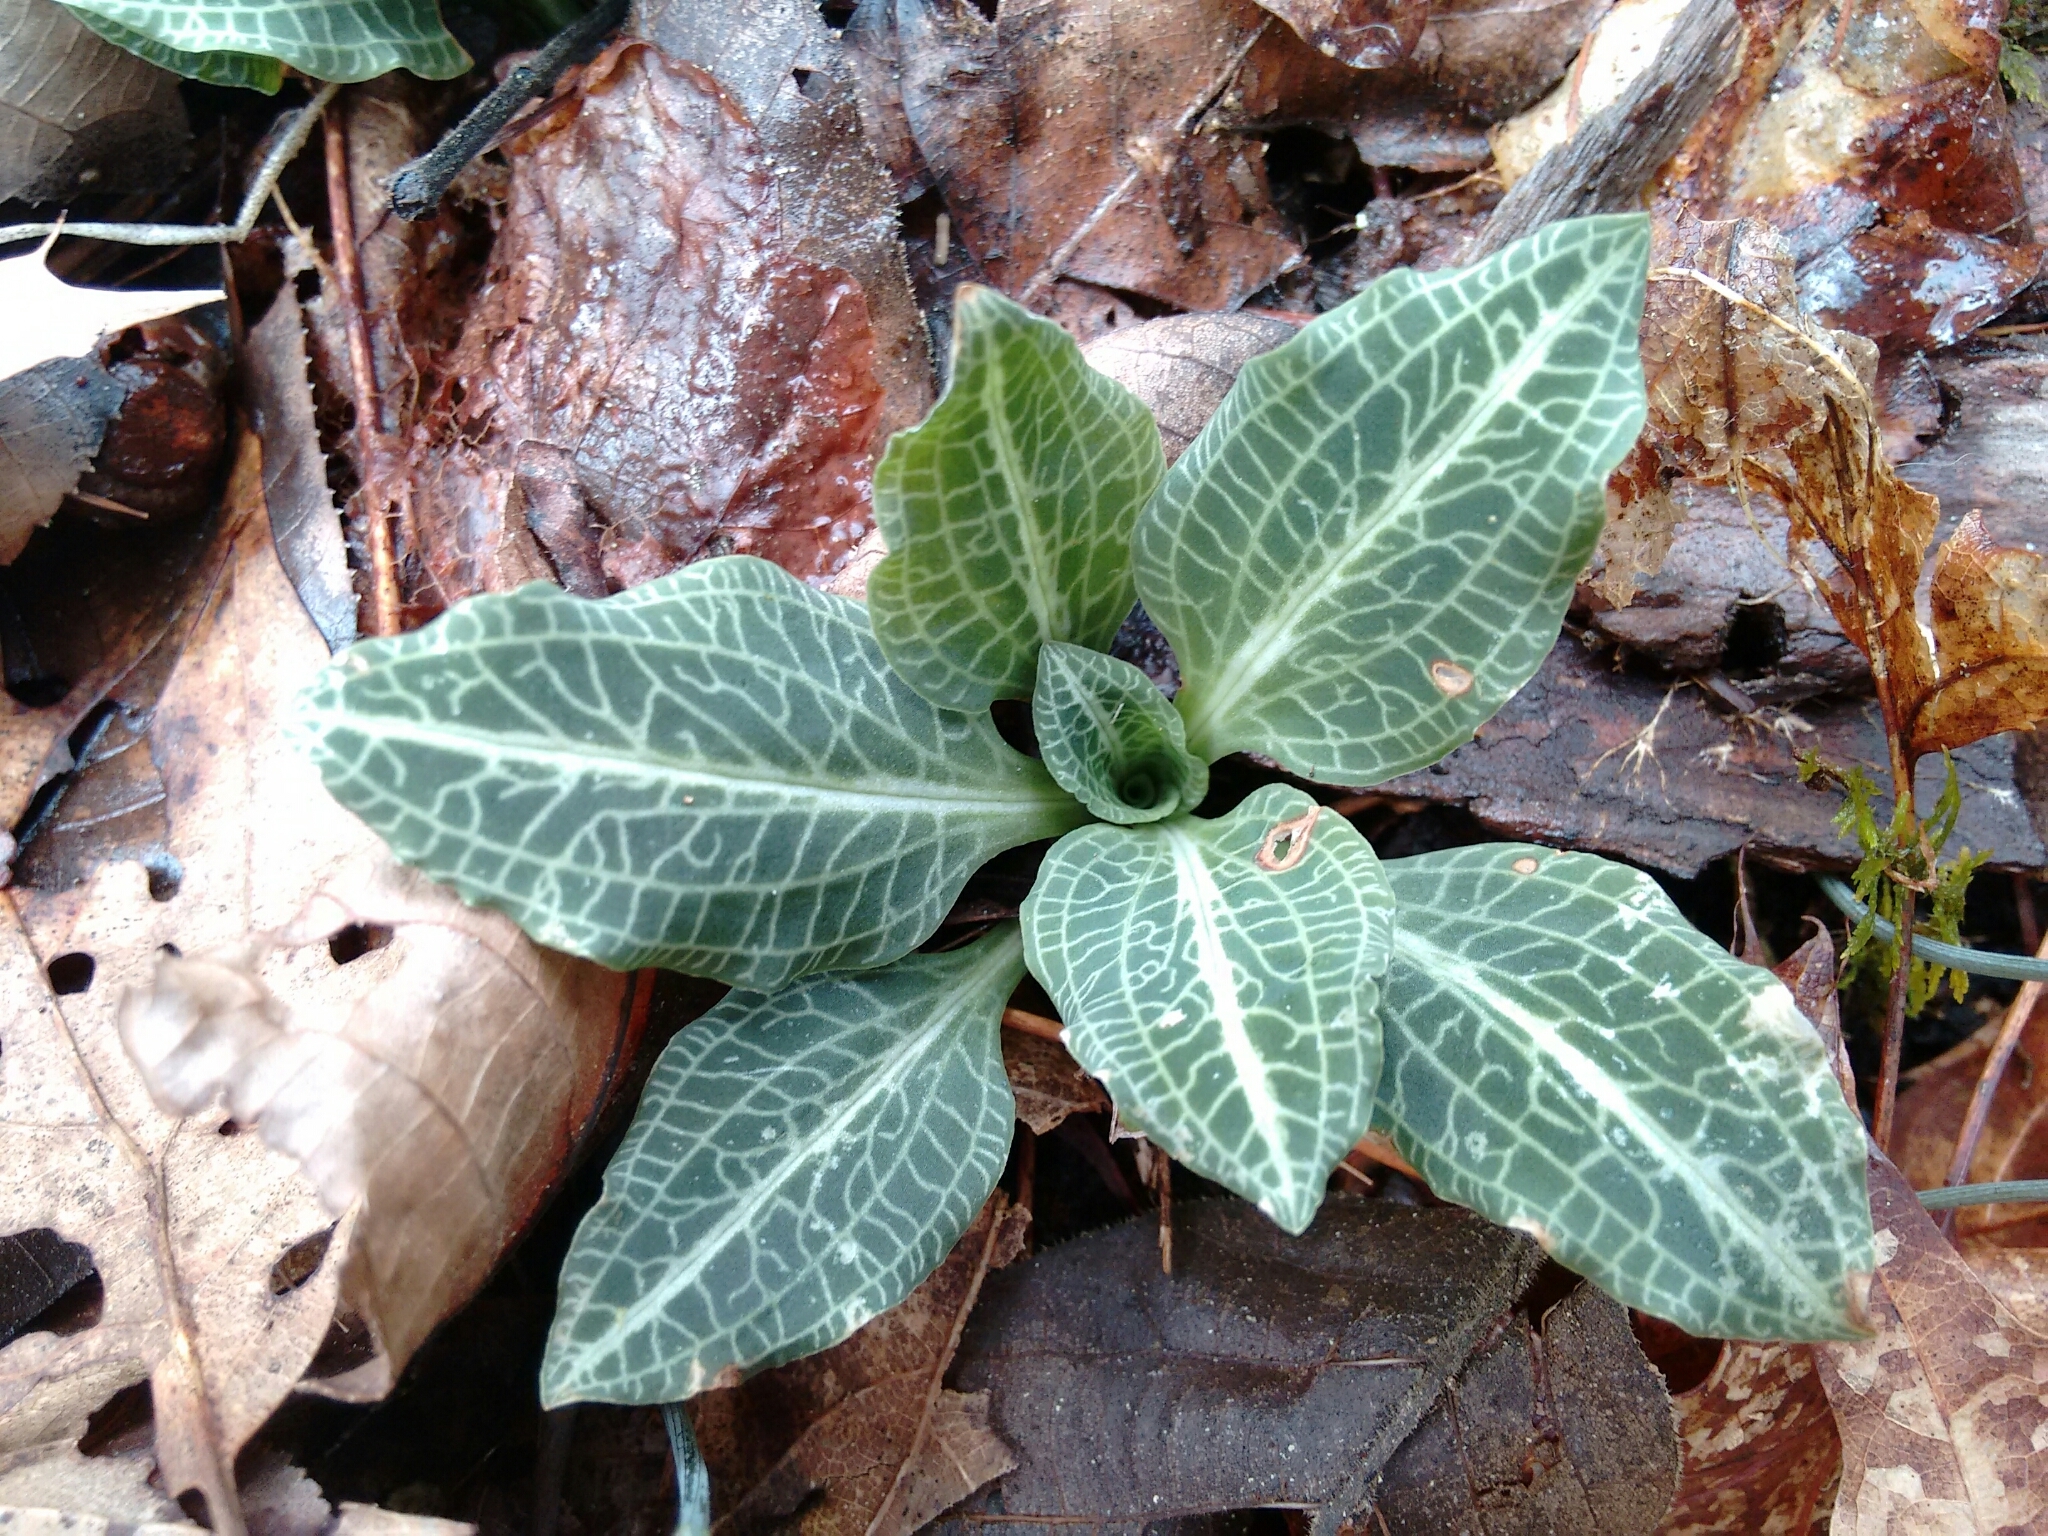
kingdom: Plantae
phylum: Tracheophyta
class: Liliopsida
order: Asparagales
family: Orchidaceae
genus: Goodyera
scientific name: Goodyera pubescens
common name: Downy rattlesnake-plantain
